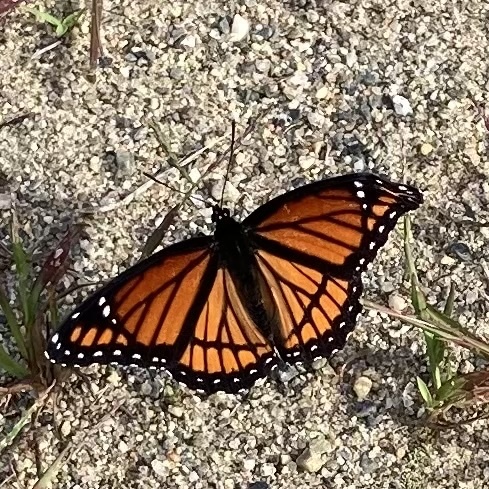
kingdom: Animalia
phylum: Arthropoda
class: Insecta
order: Lepidoptera
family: Nymphalidae
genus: Limenitis
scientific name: Limenitis archippus
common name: Viceroy
